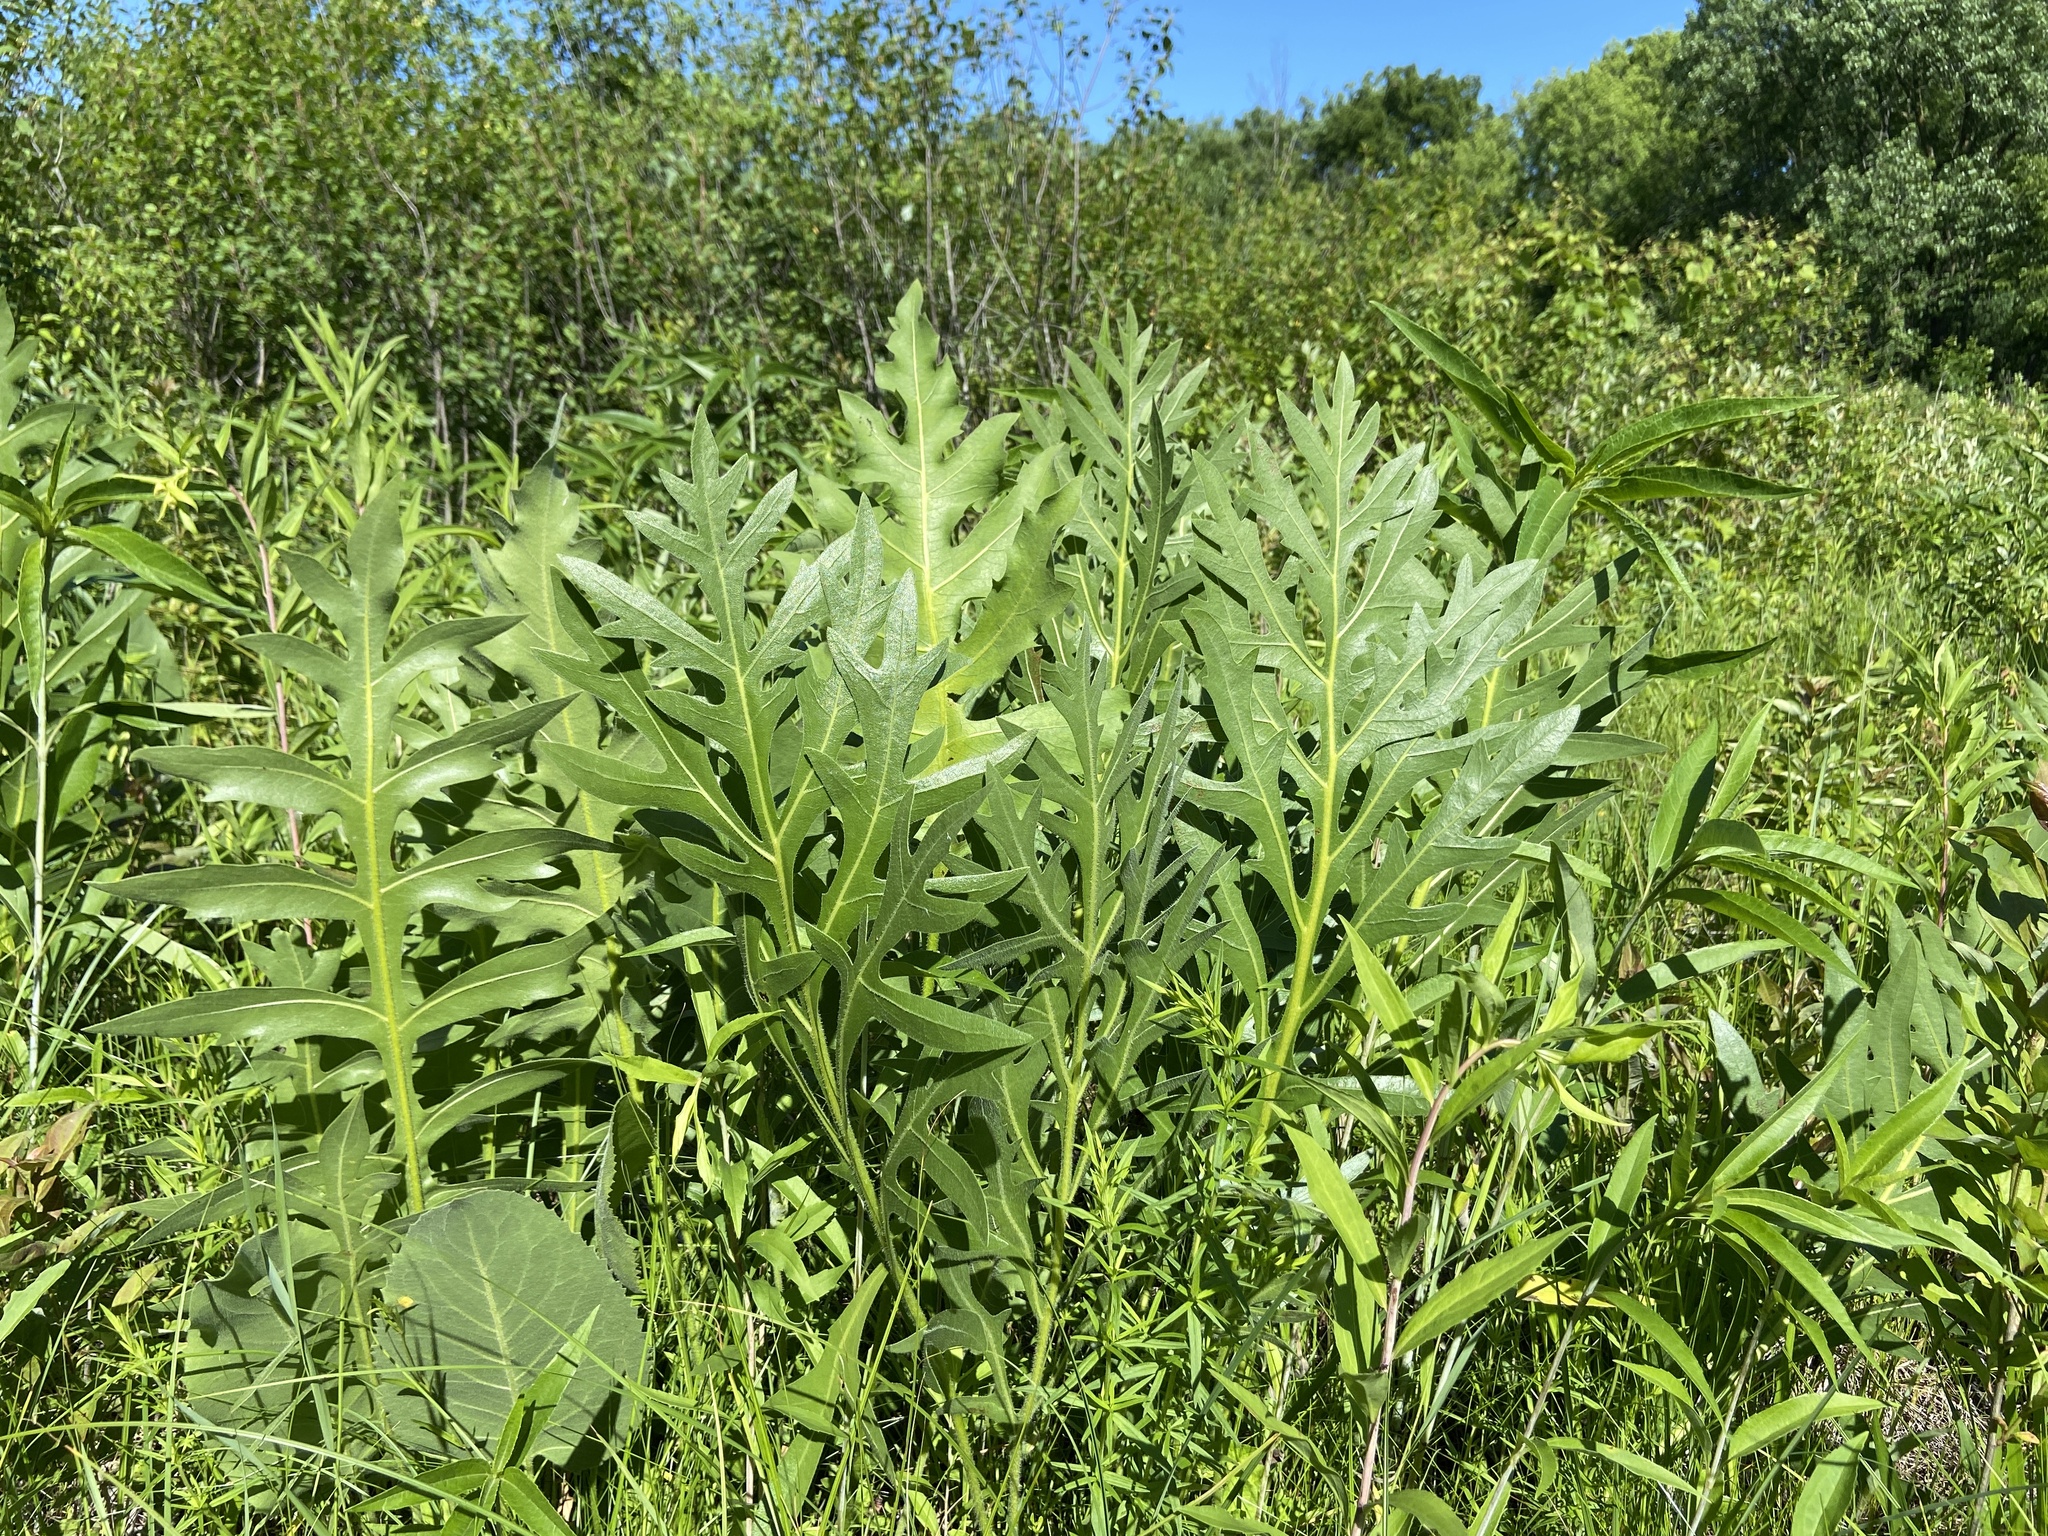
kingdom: Plantae
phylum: Tracheophyta
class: Magnoliopsida
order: Asterales
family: Asteraceae
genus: Silphium
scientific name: Silphium laciniatum
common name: Polarplant
